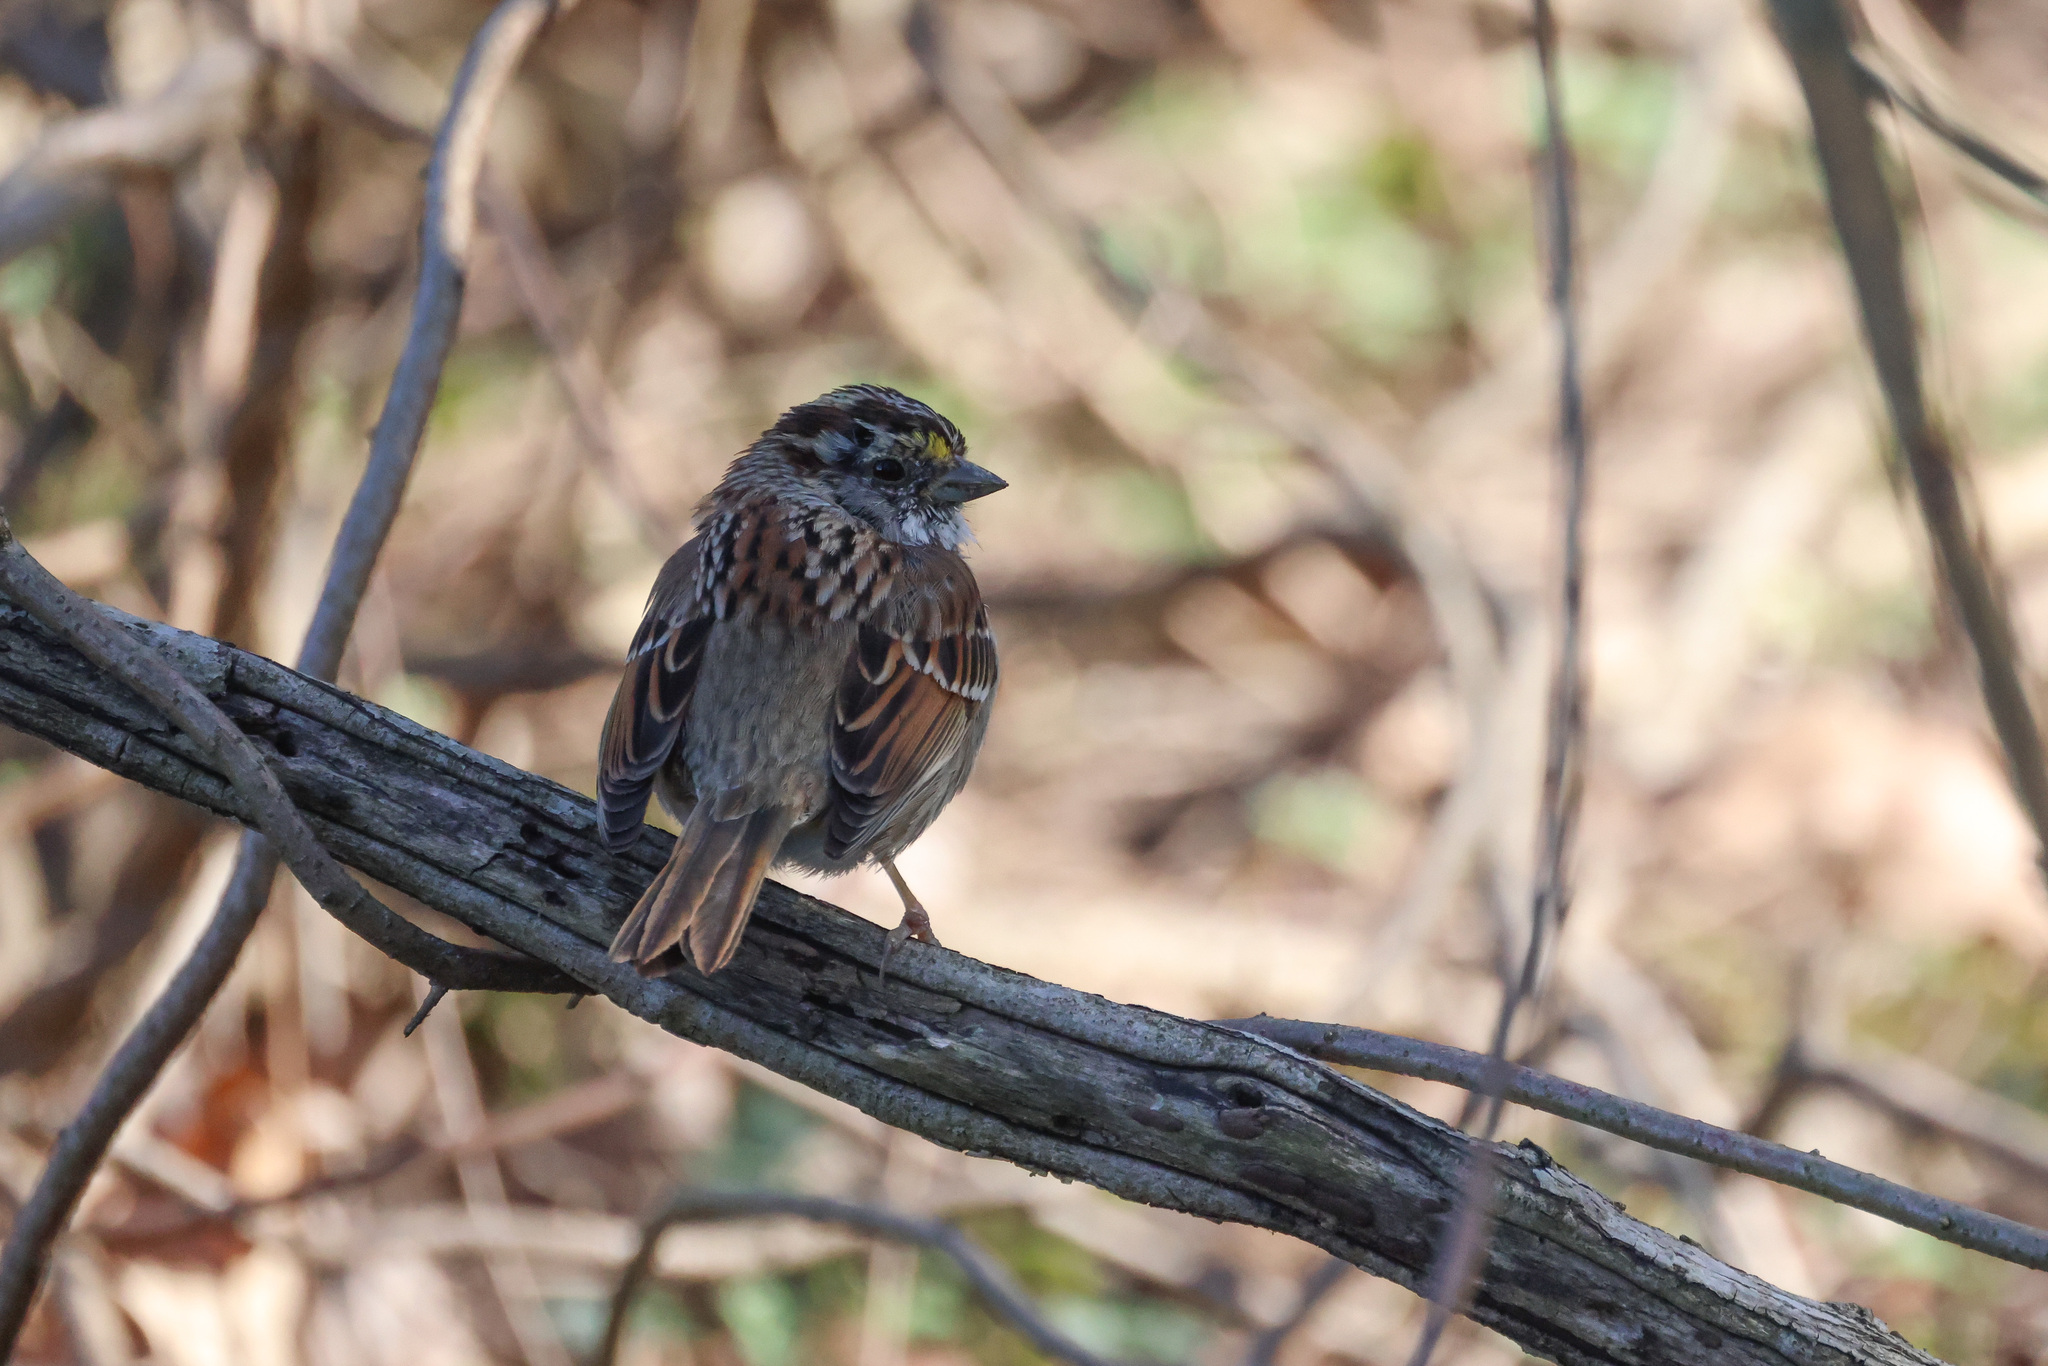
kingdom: Animalia
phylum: Chordata
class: Aves
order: Passeriformes
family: Passerellidae
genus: Zonotrichia
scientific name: Zonotrichia albicollis
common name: White-throated sparrow
